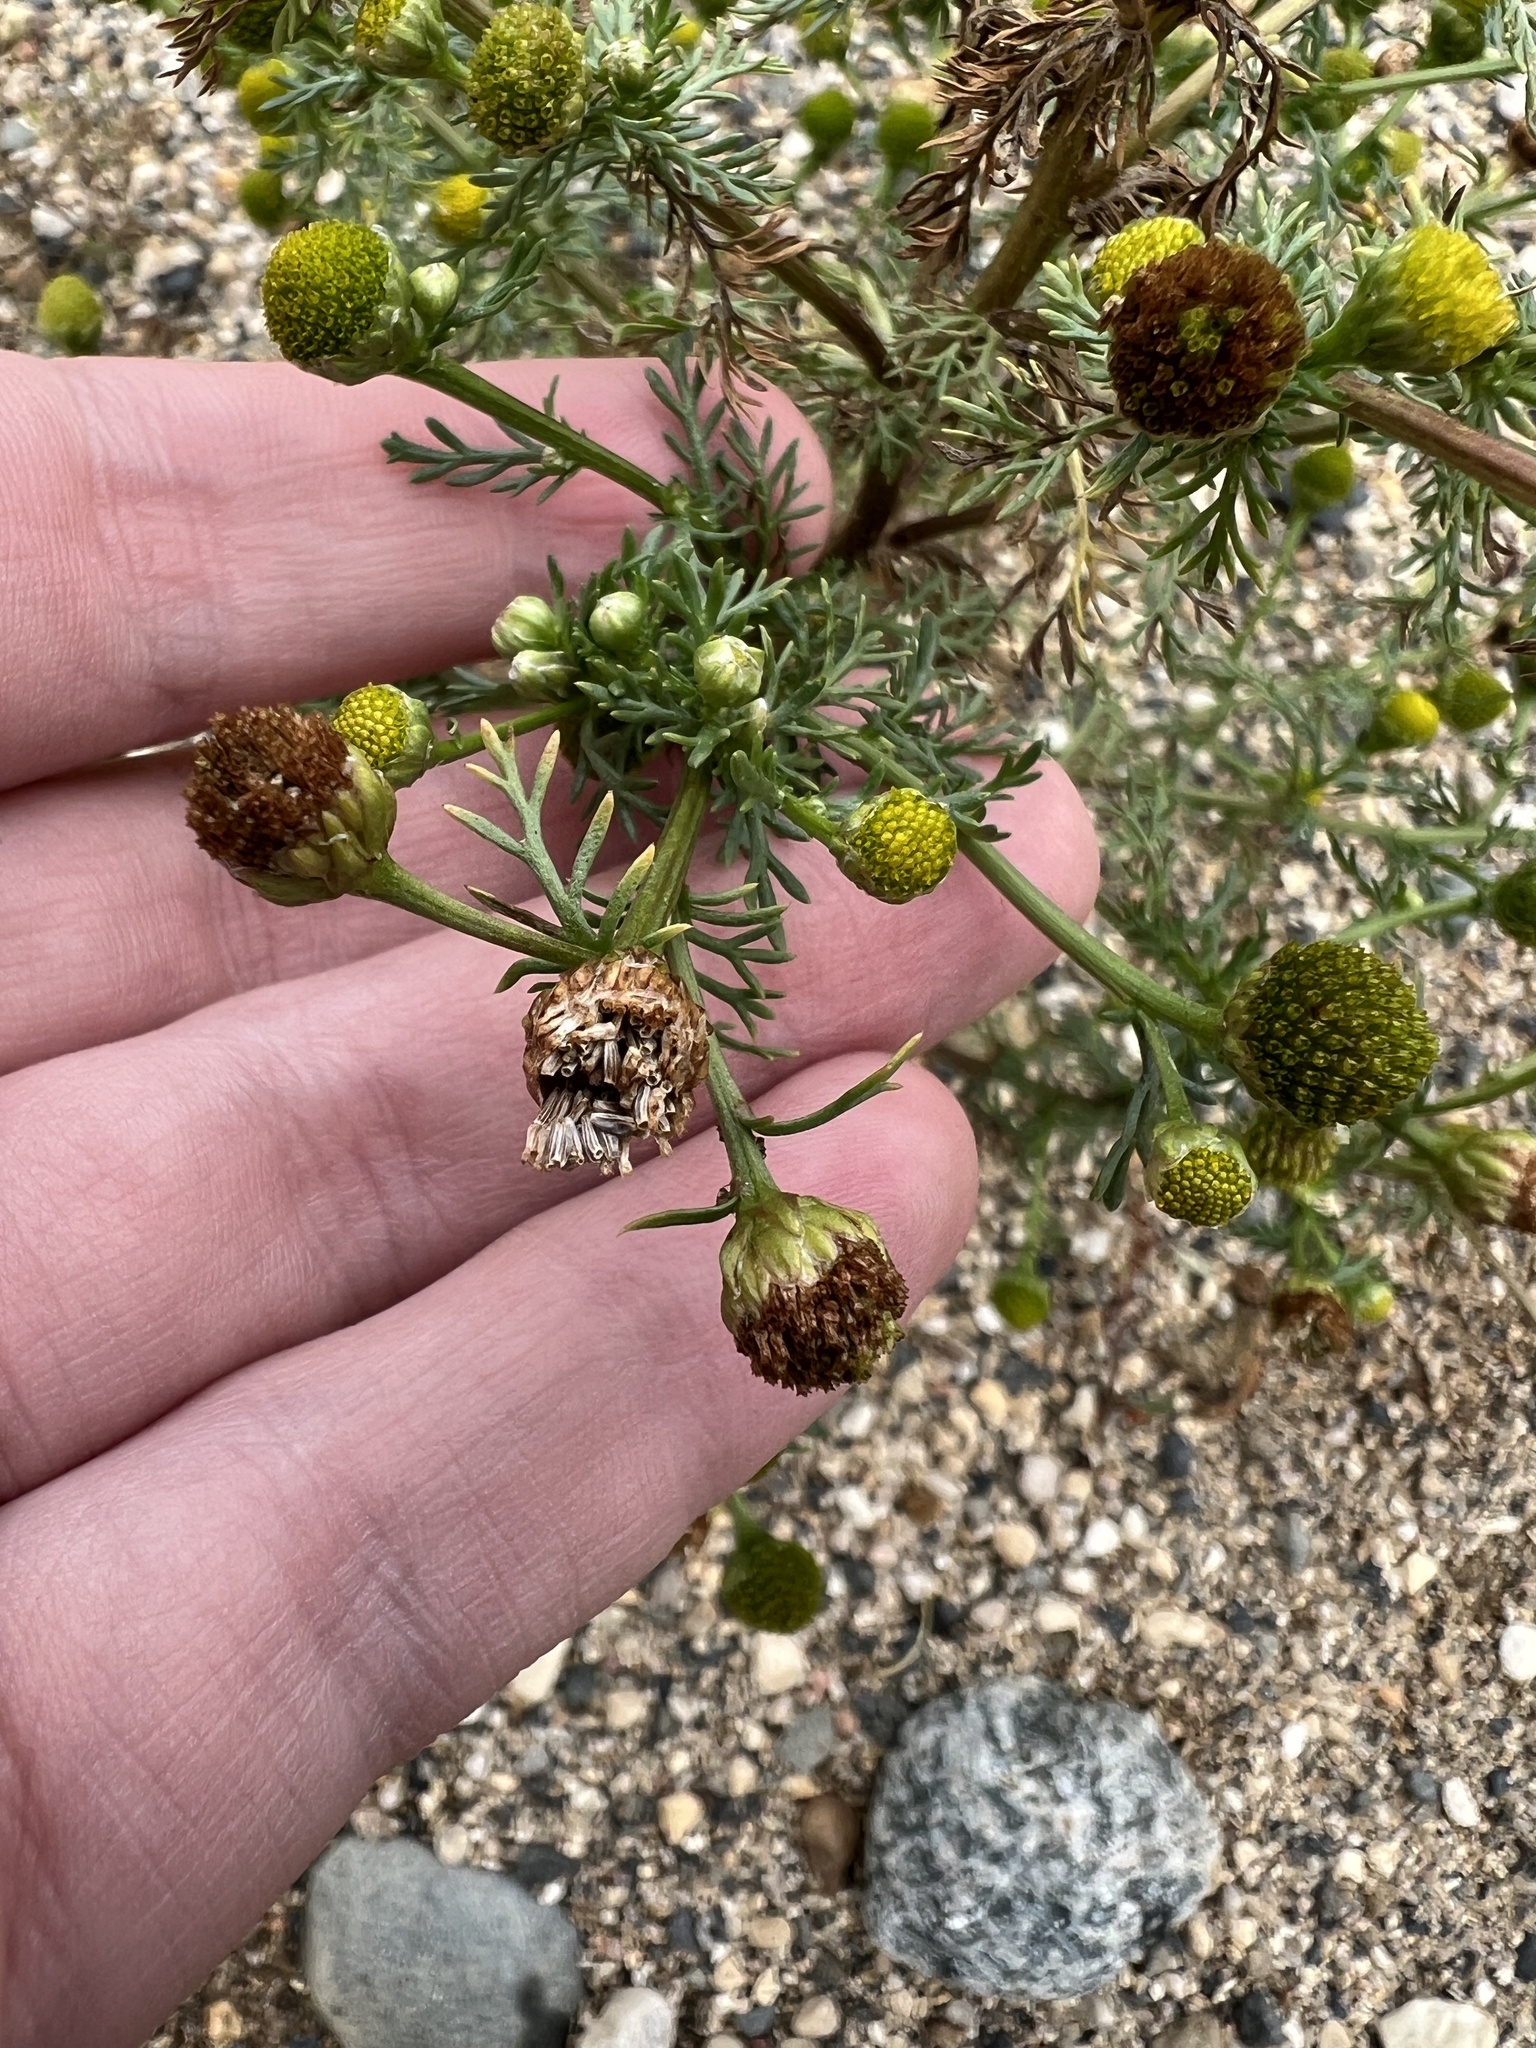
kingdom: Plantae
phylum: Tracheophyta
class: Magnoliopsida
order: Asterales
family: Asteraceae
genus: Matricaria
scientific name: Matricaria discoidea
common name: Disc mayweed
